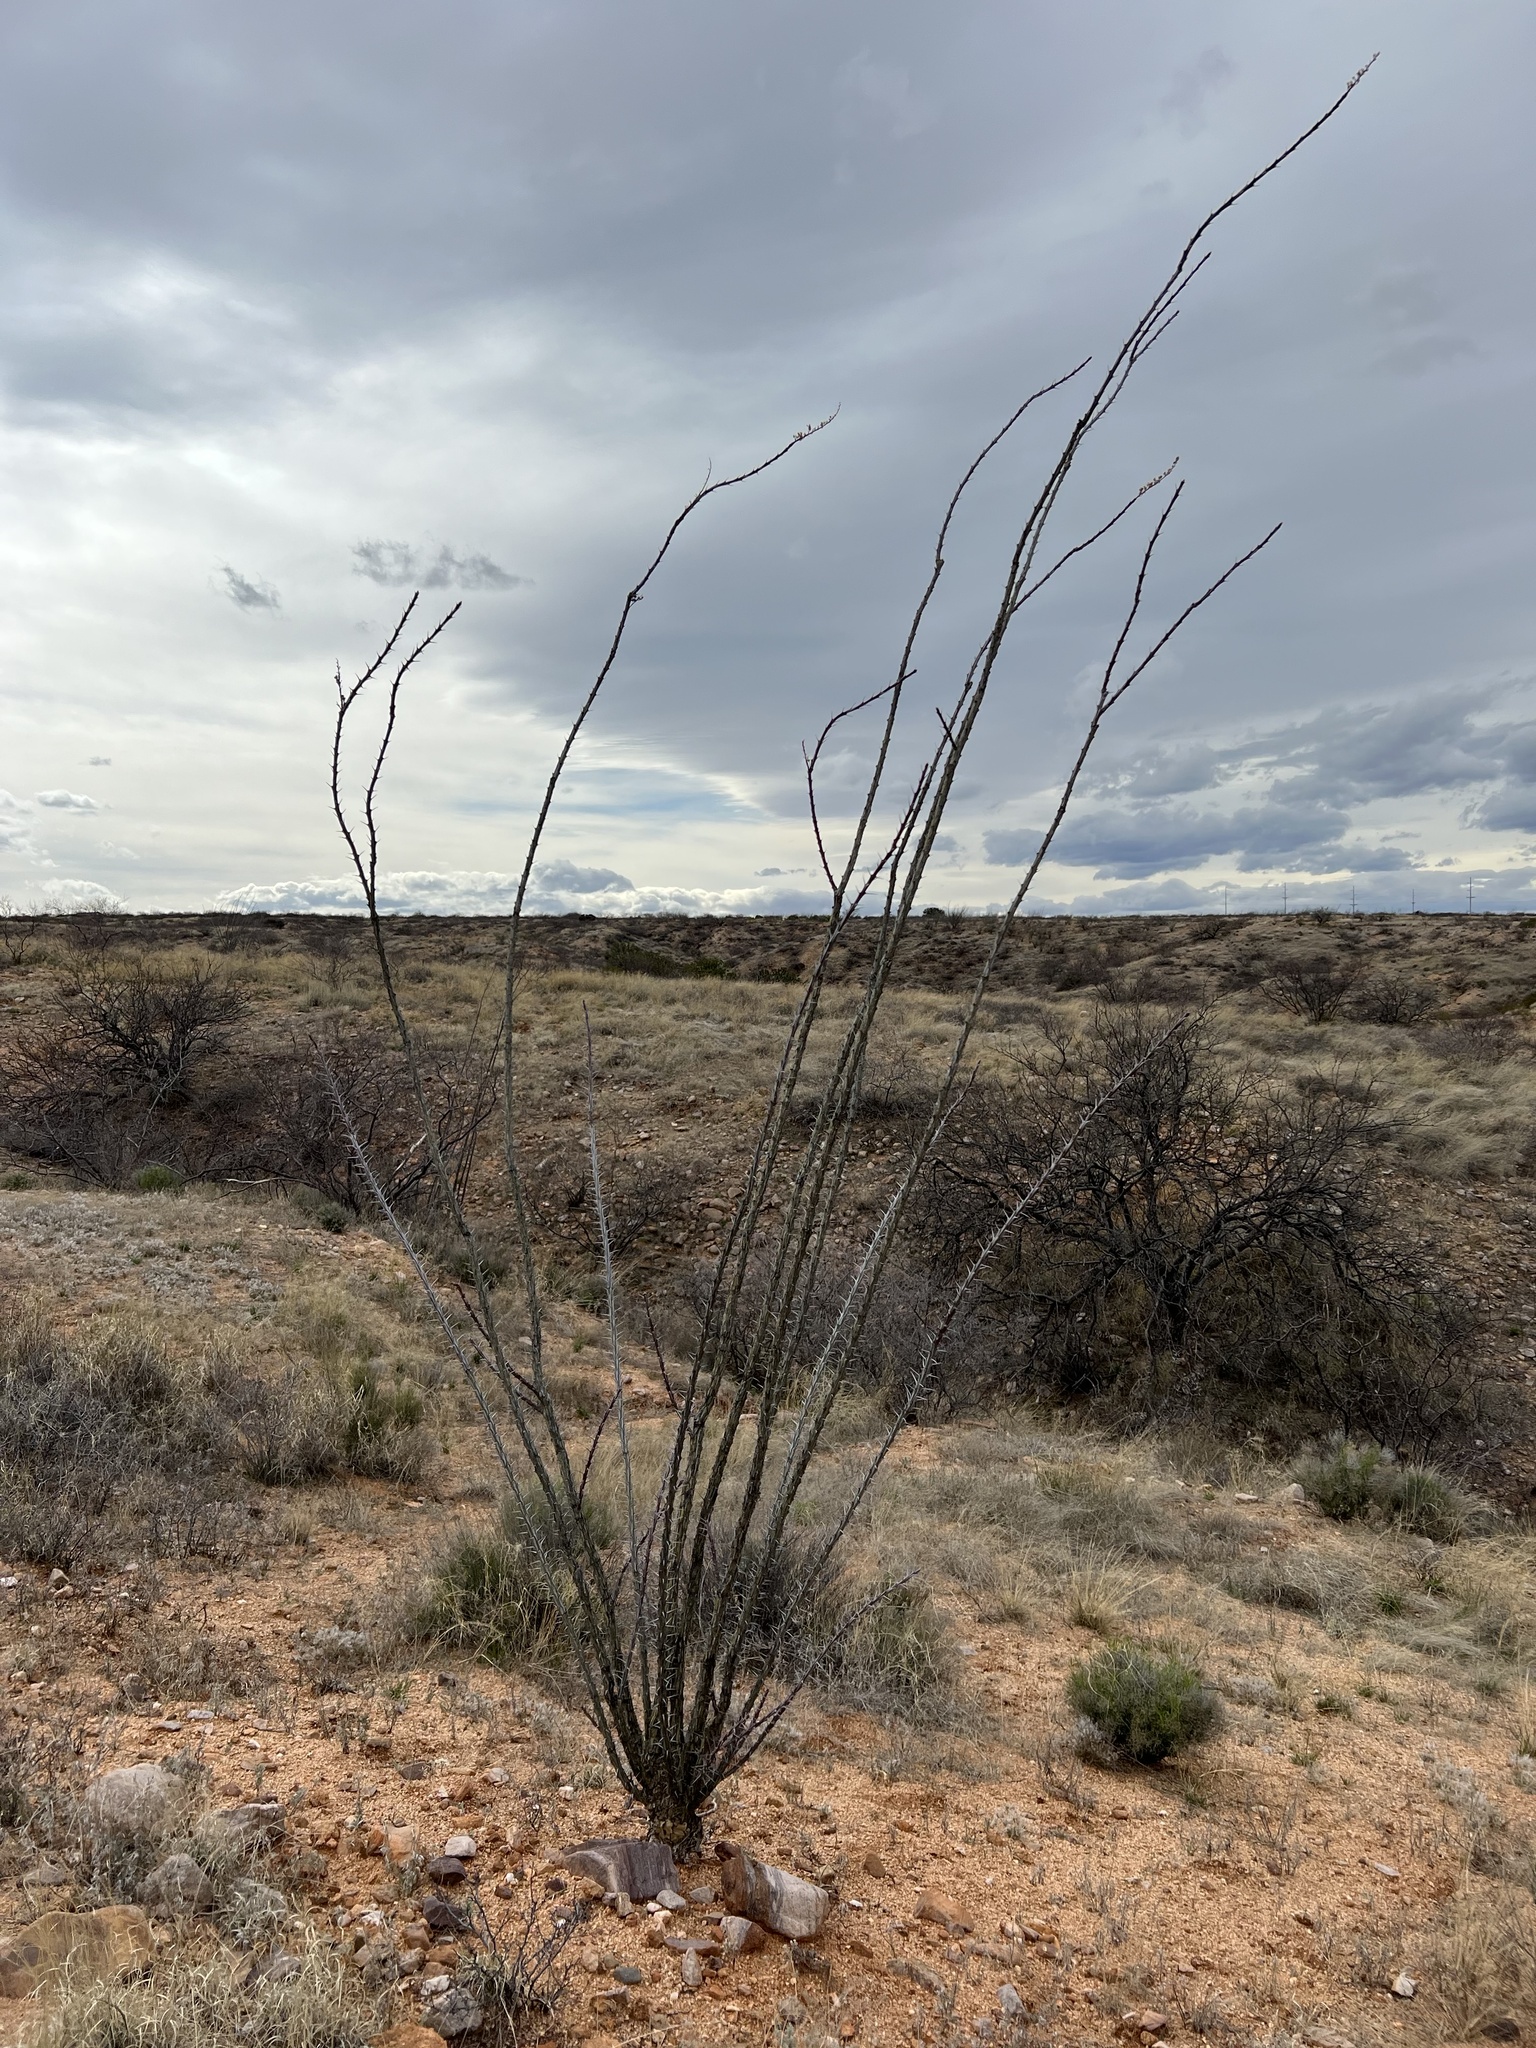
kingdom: Plantae
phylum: Tracheophyta
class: Magnoliopsida
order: Ericales
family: Fouquieriaceae
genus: Fouquieria
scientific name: Fouquieria splendens
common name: Vine-cactus
